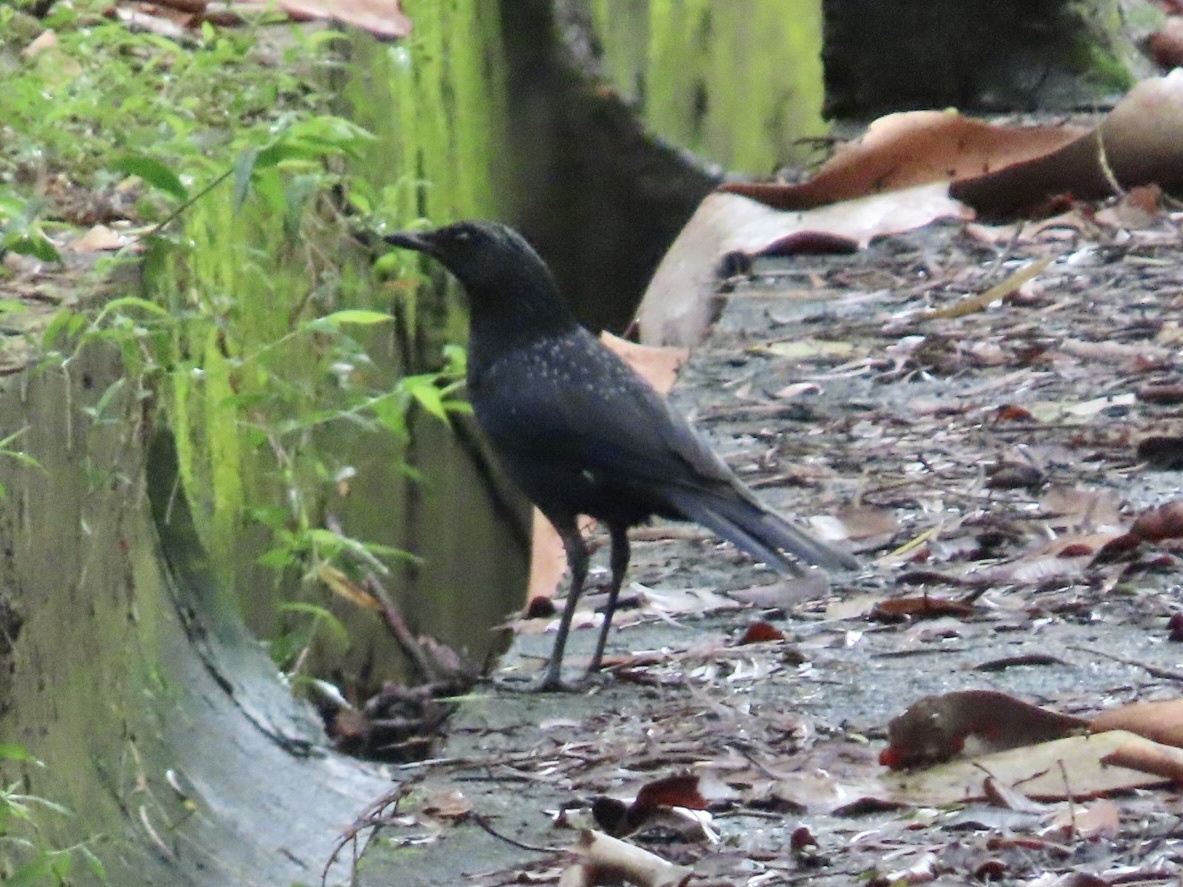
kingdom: Animalia
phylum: Chordata
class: Aves
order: Passeriformes
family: Muscicapidae
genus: Myophonus
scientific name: Myophonus caeruleus
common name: Blue whistling-thrush
